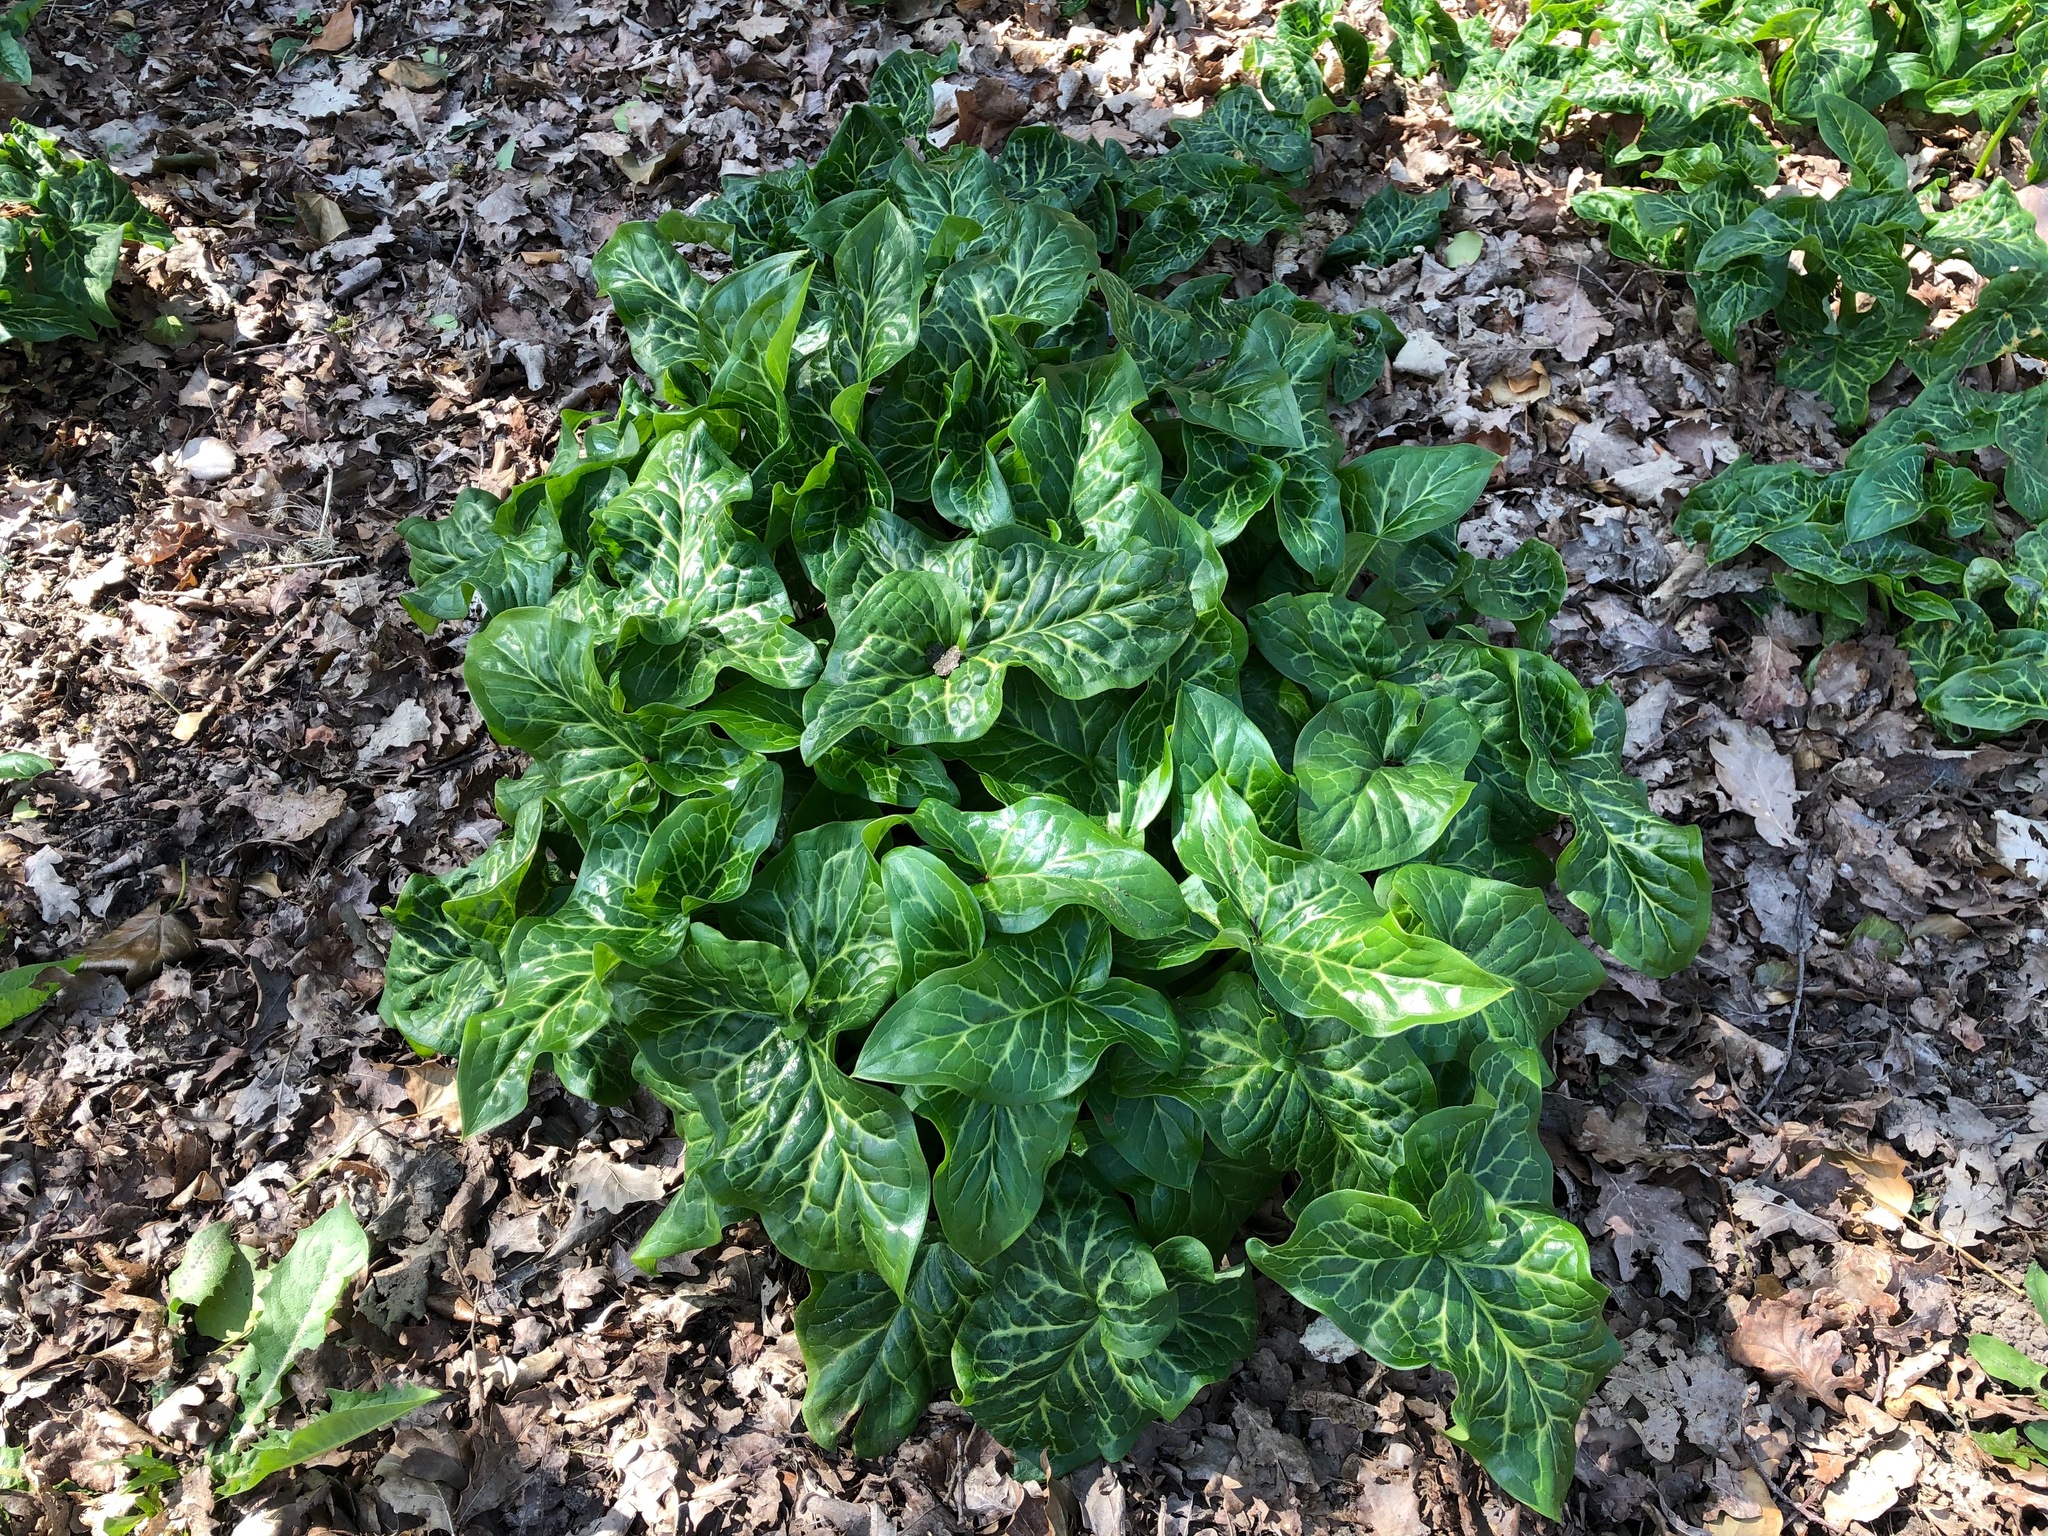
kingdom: Plantae
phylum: Tracheophyta
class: Liliopsida
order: Alismatales
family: Araceae
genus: Arum
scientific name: Arum italicum
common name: Italian lords-and-ladies
